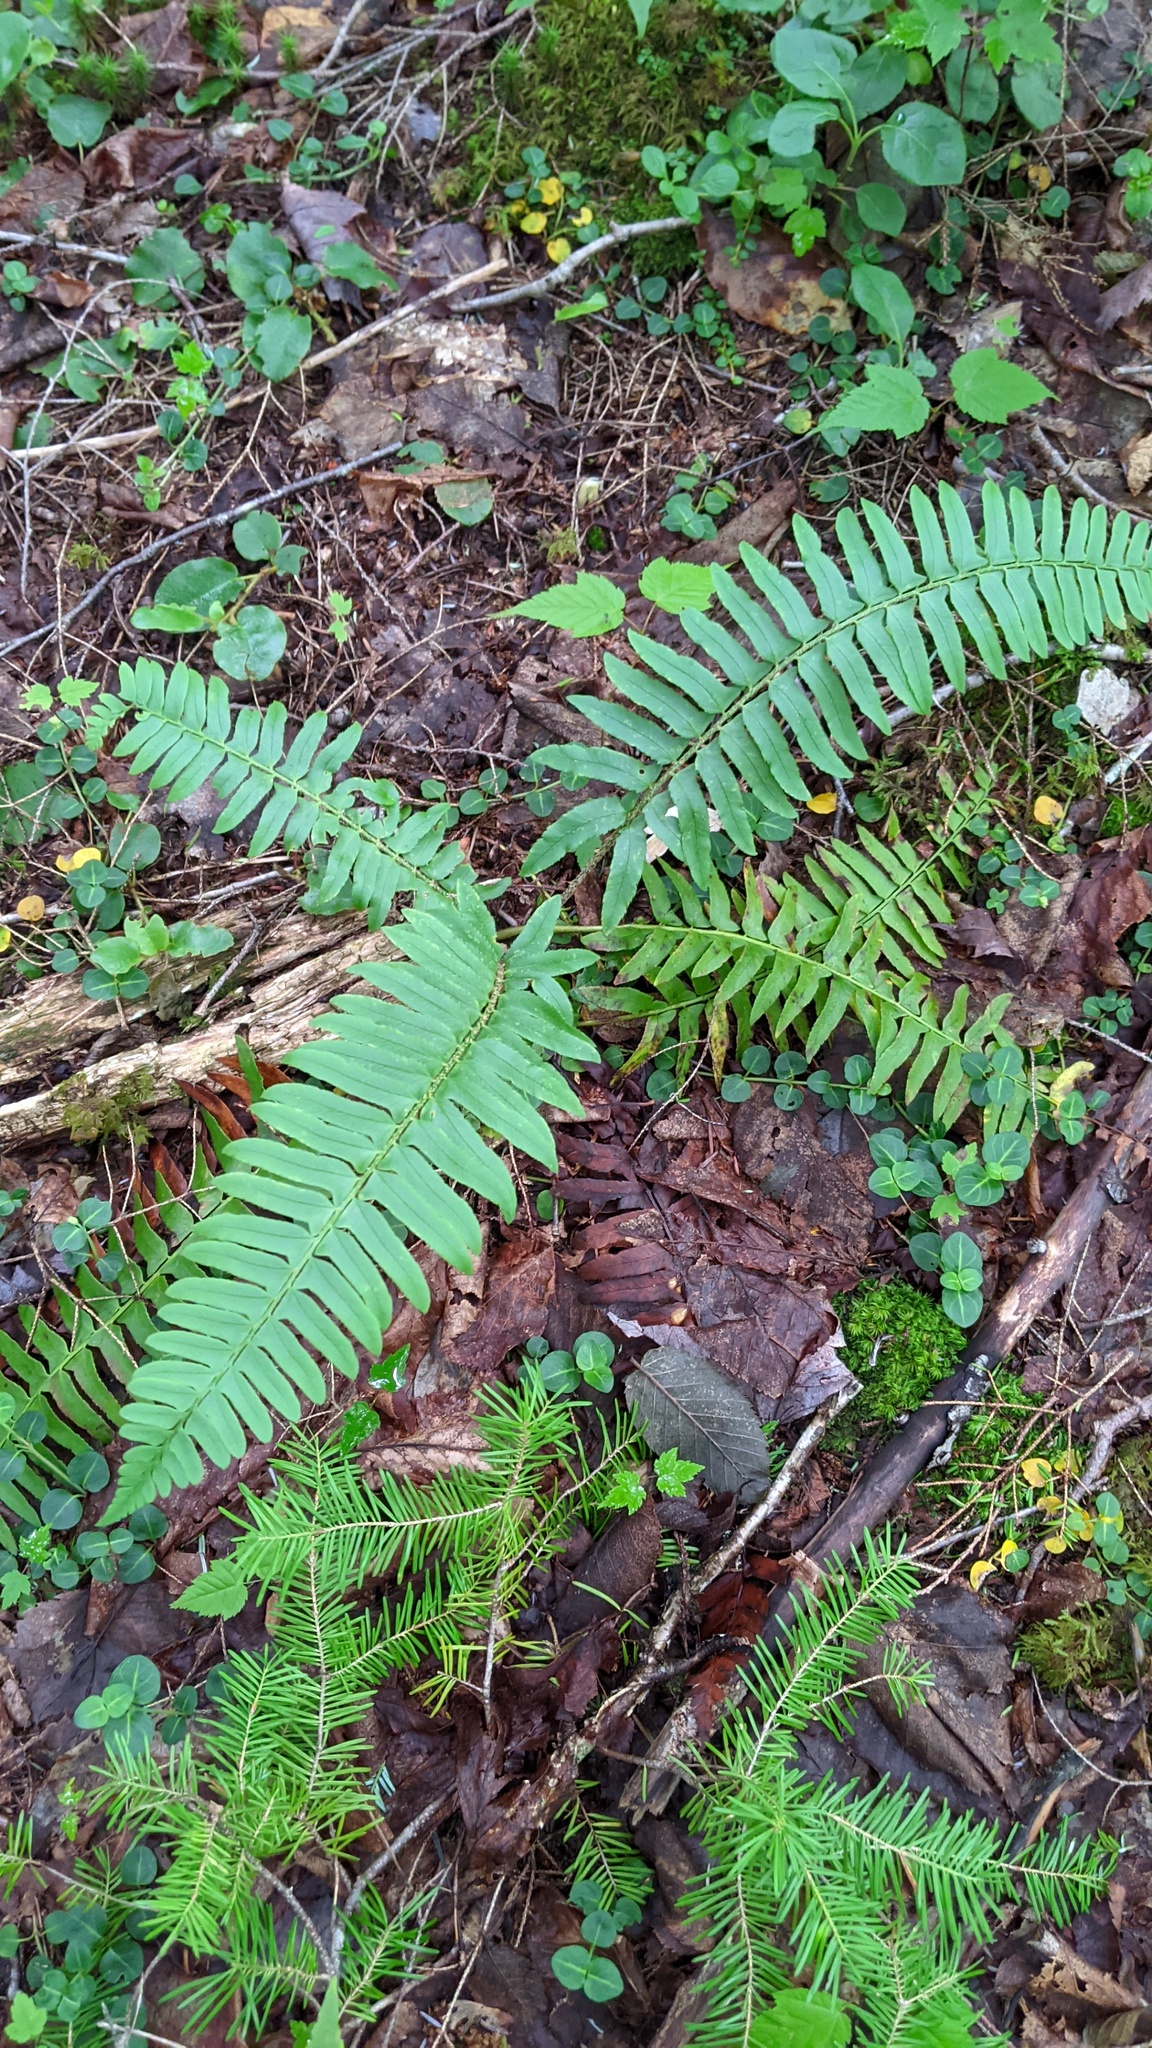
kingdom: Plantae
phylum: Tracheophyta
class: Polypodiopsida
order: Polypodiales
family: Dryopteridaceae
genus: Polystichum
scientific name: Polystichum acrostichoides
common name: Christmas fern
